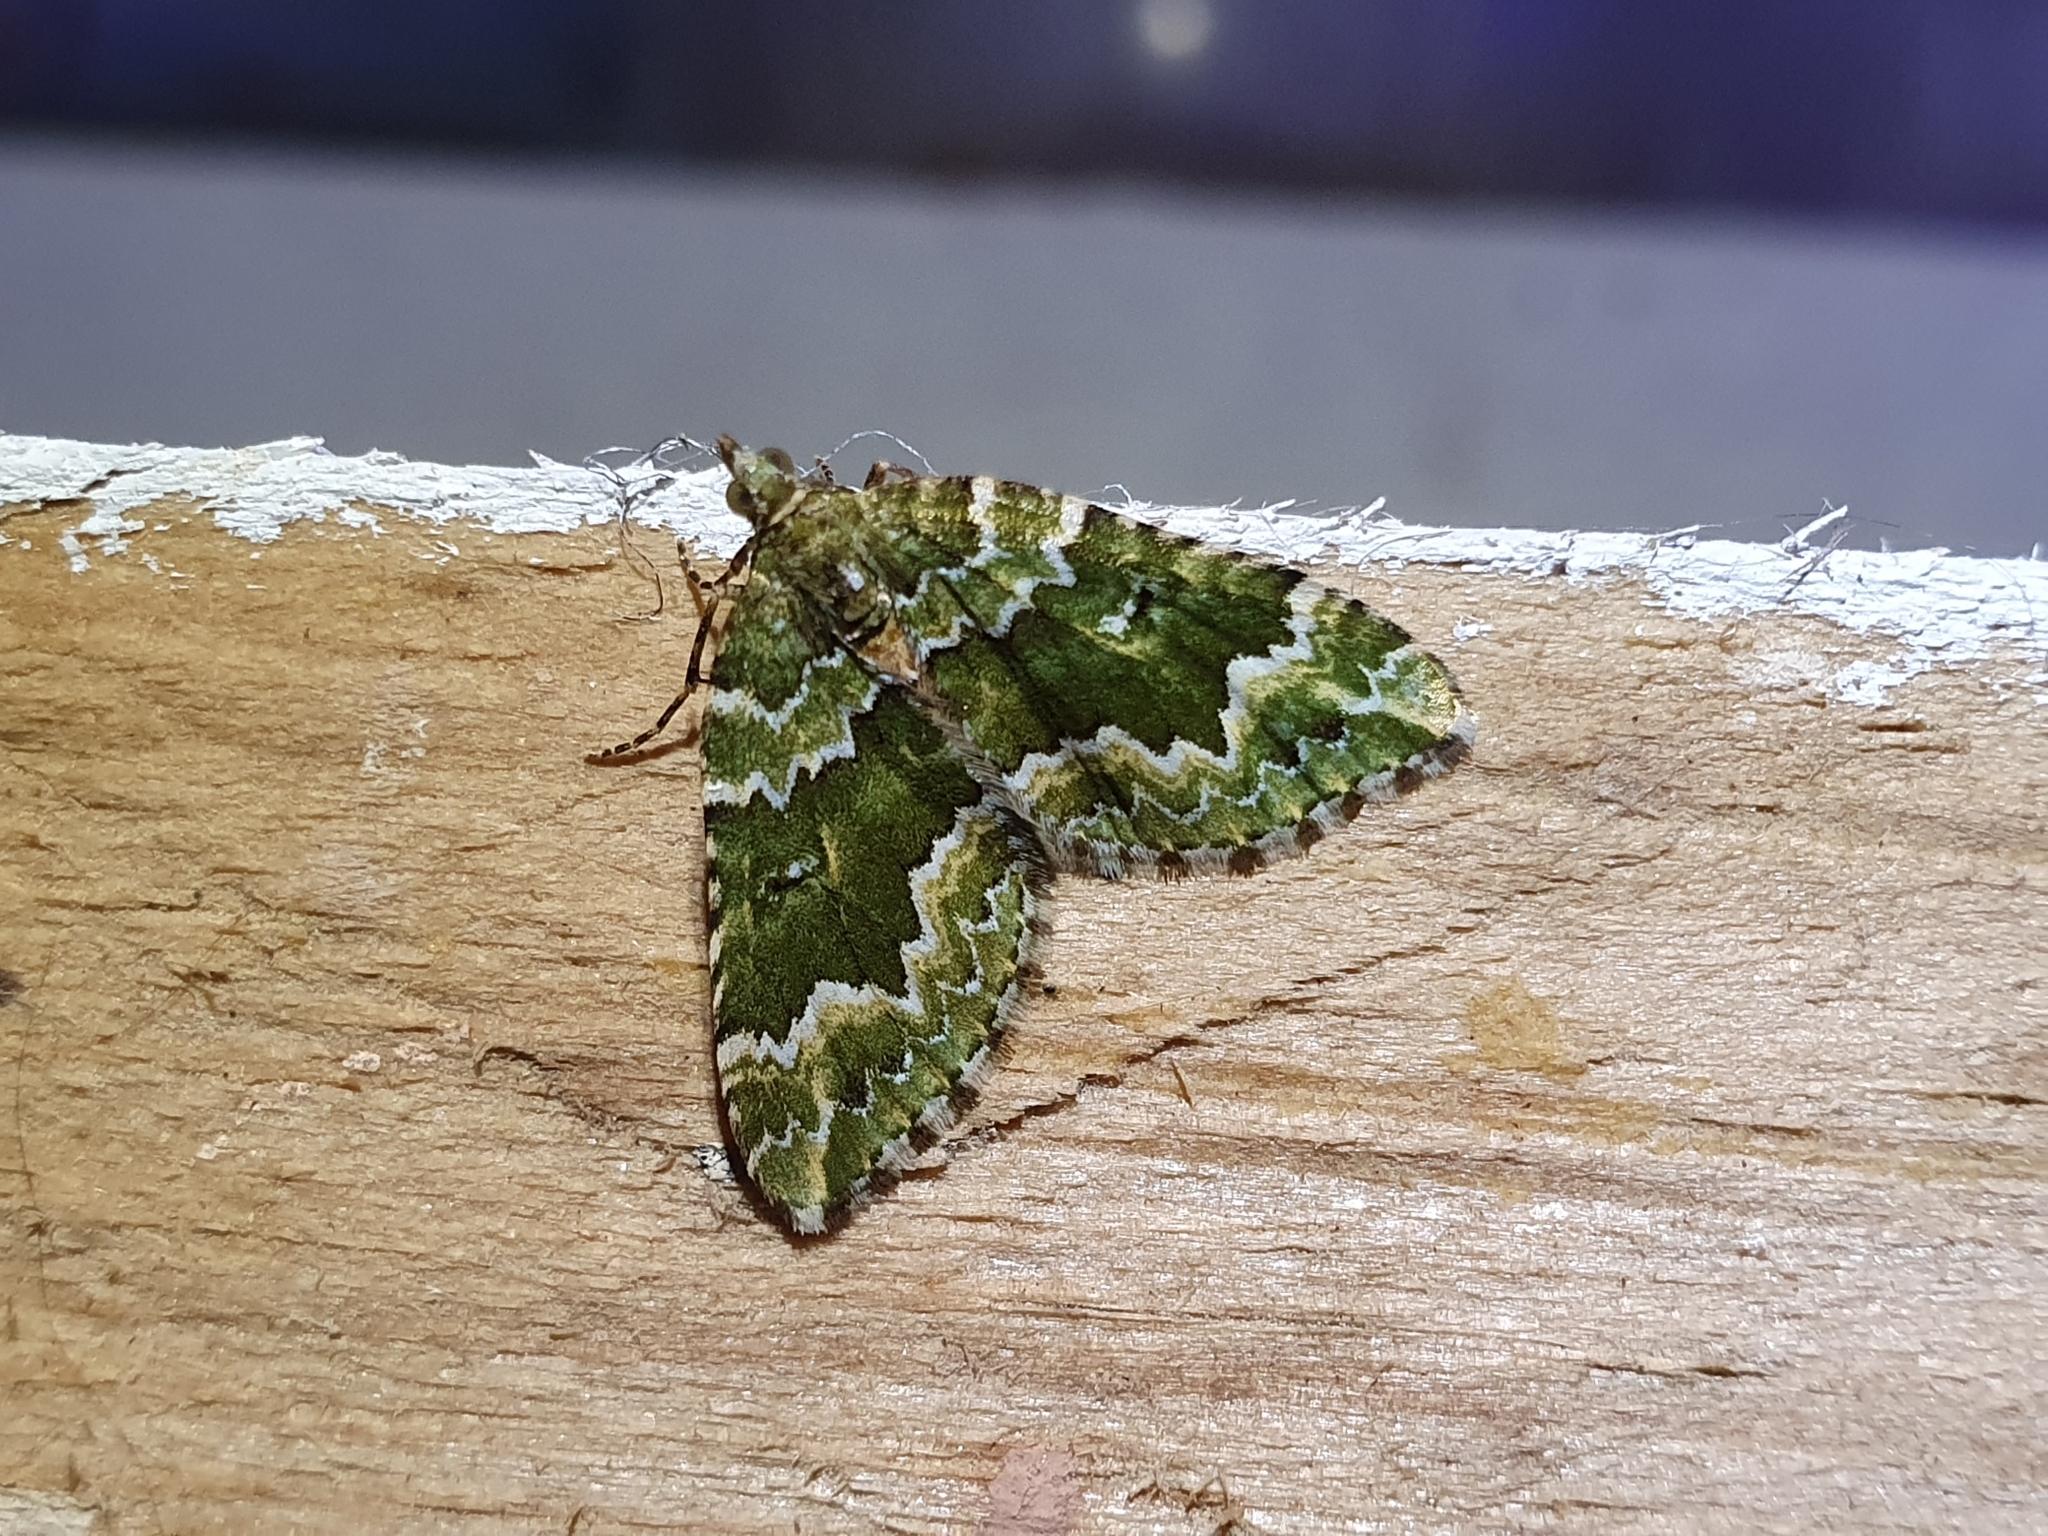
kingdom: Animalia
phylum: Arthropoda
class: Insecta
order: Lepidoptera
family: Geometridae
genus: Asaphodes
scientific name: Asaphodes beata
